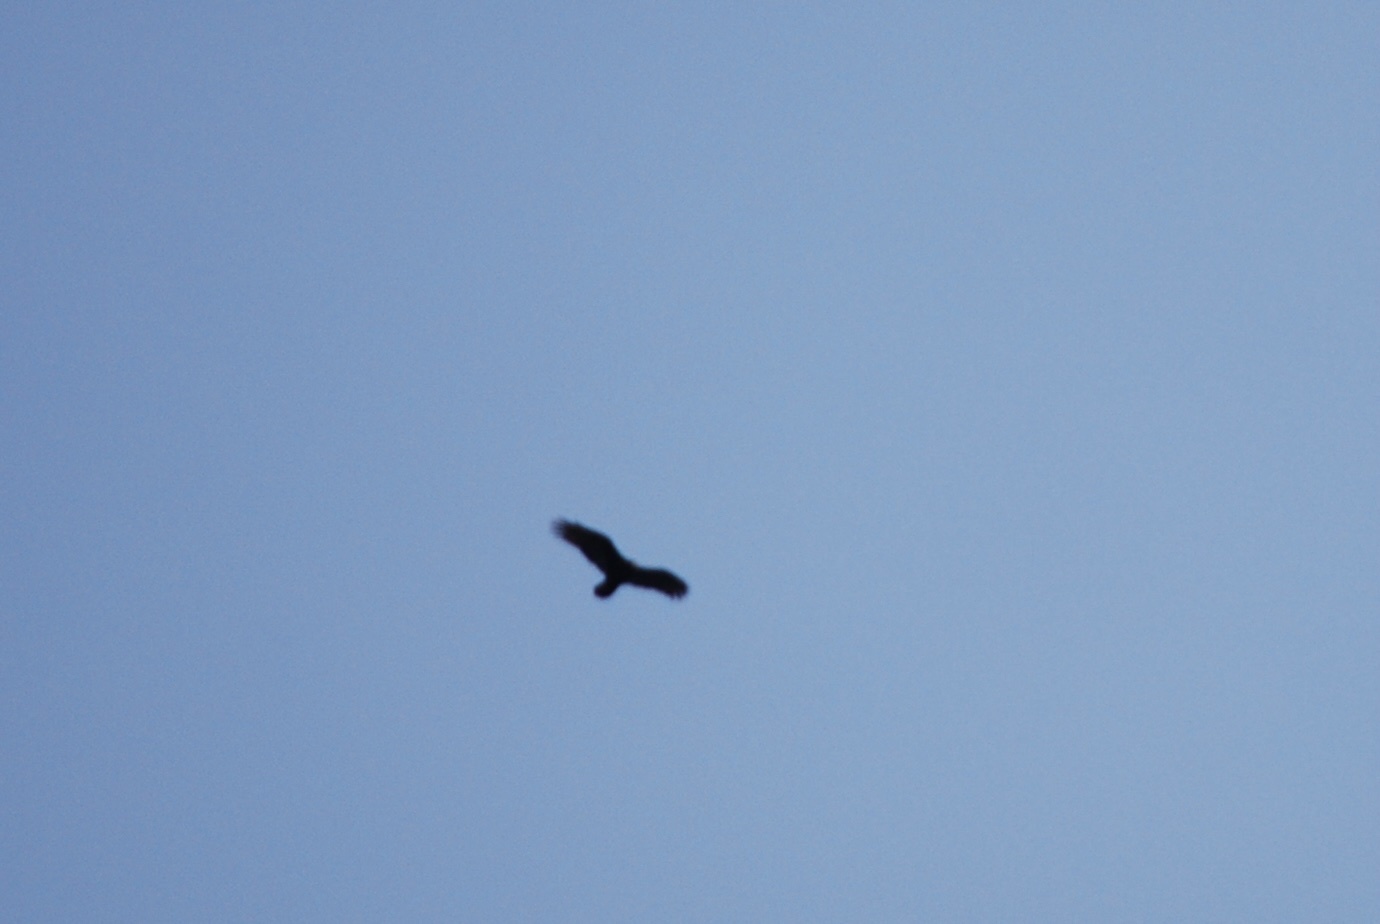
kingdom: Animalia
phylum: Chordata
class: Aves
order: Accipitriformes
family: Cathartidae
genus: Cathartes
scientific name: Cathartes aura
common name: Turkey vulture
